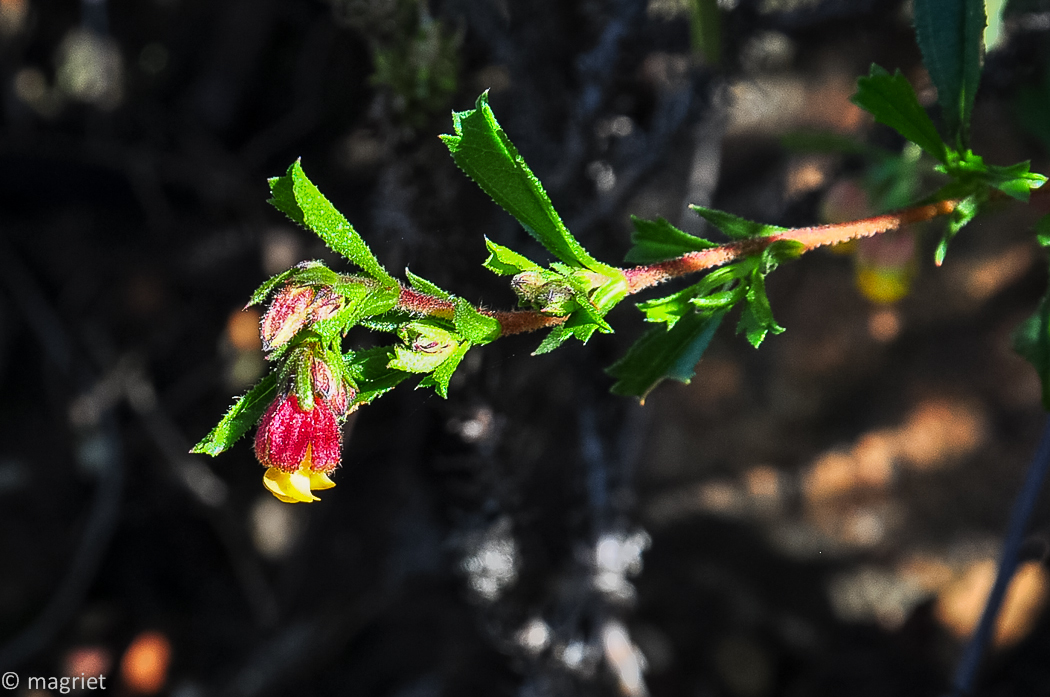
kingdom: Plantae
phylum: Tracheophyta
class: Magnoliopsida
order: Malvales
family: Malvaceae
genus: Hermannia
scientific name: Hermannia rudis
